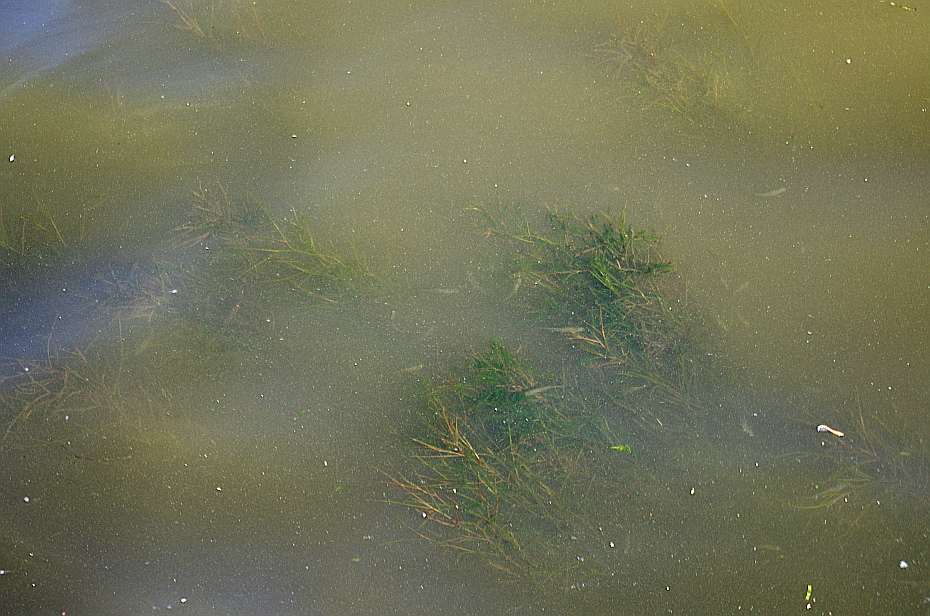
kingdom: Plantae
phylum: Tracheophyta
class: Liliopsida
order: Alismatales
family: Potamogetonaceae
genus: Stuckenia
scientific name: Stuckenia pectinata
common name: Sago pondweed
